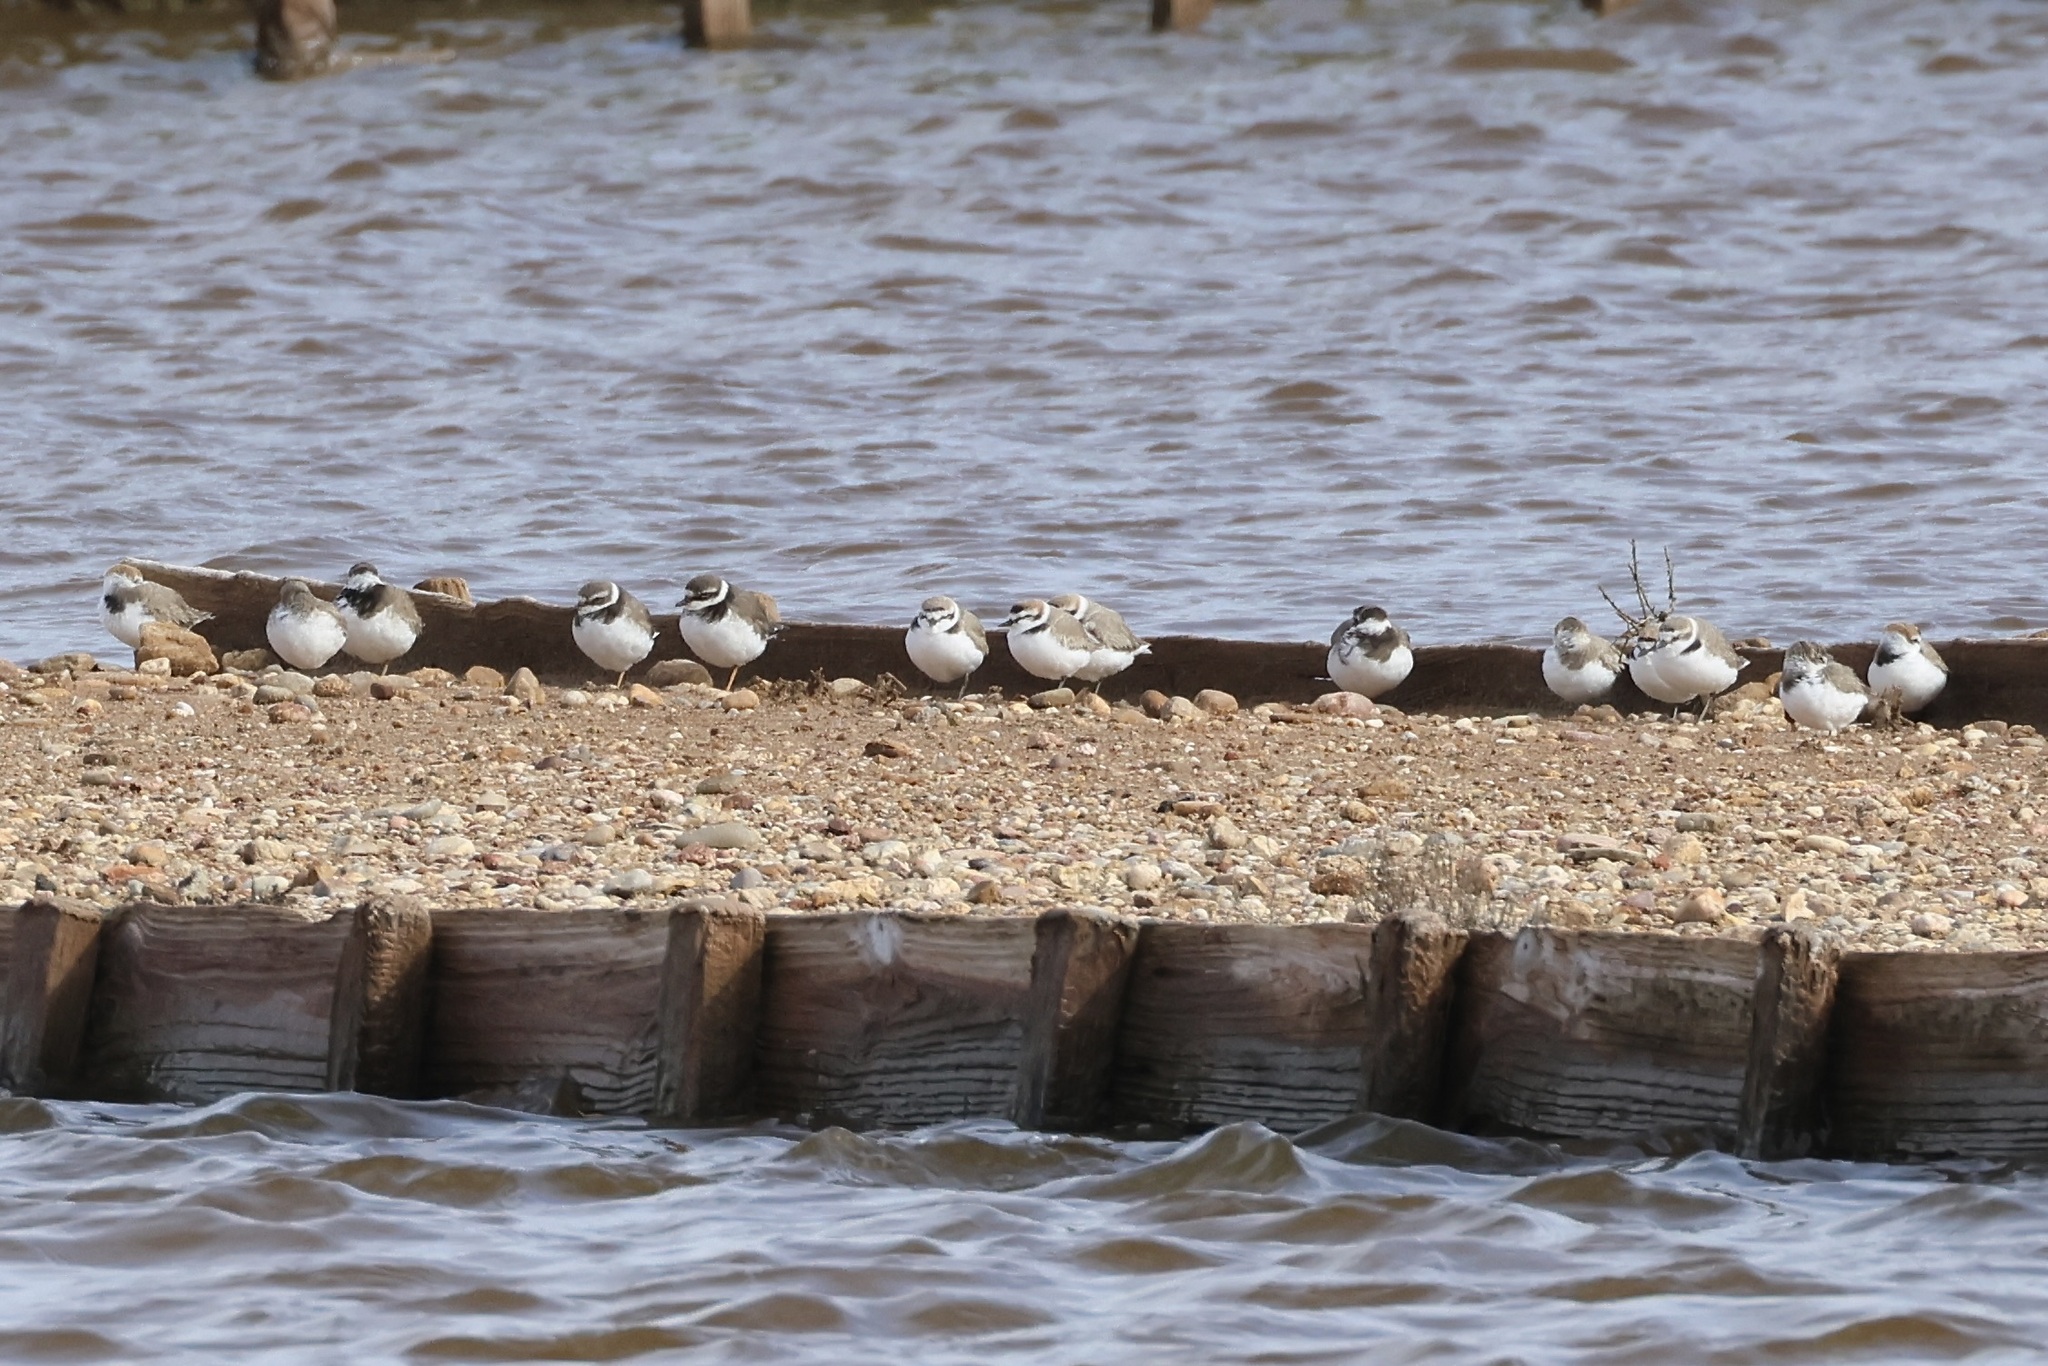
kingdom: Animalia
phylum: Chordata
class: Aves
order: Charadriiformes
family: Charadriidae
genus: Charadrius
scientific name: Charadrius alexandrinus
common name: Kentish plover
